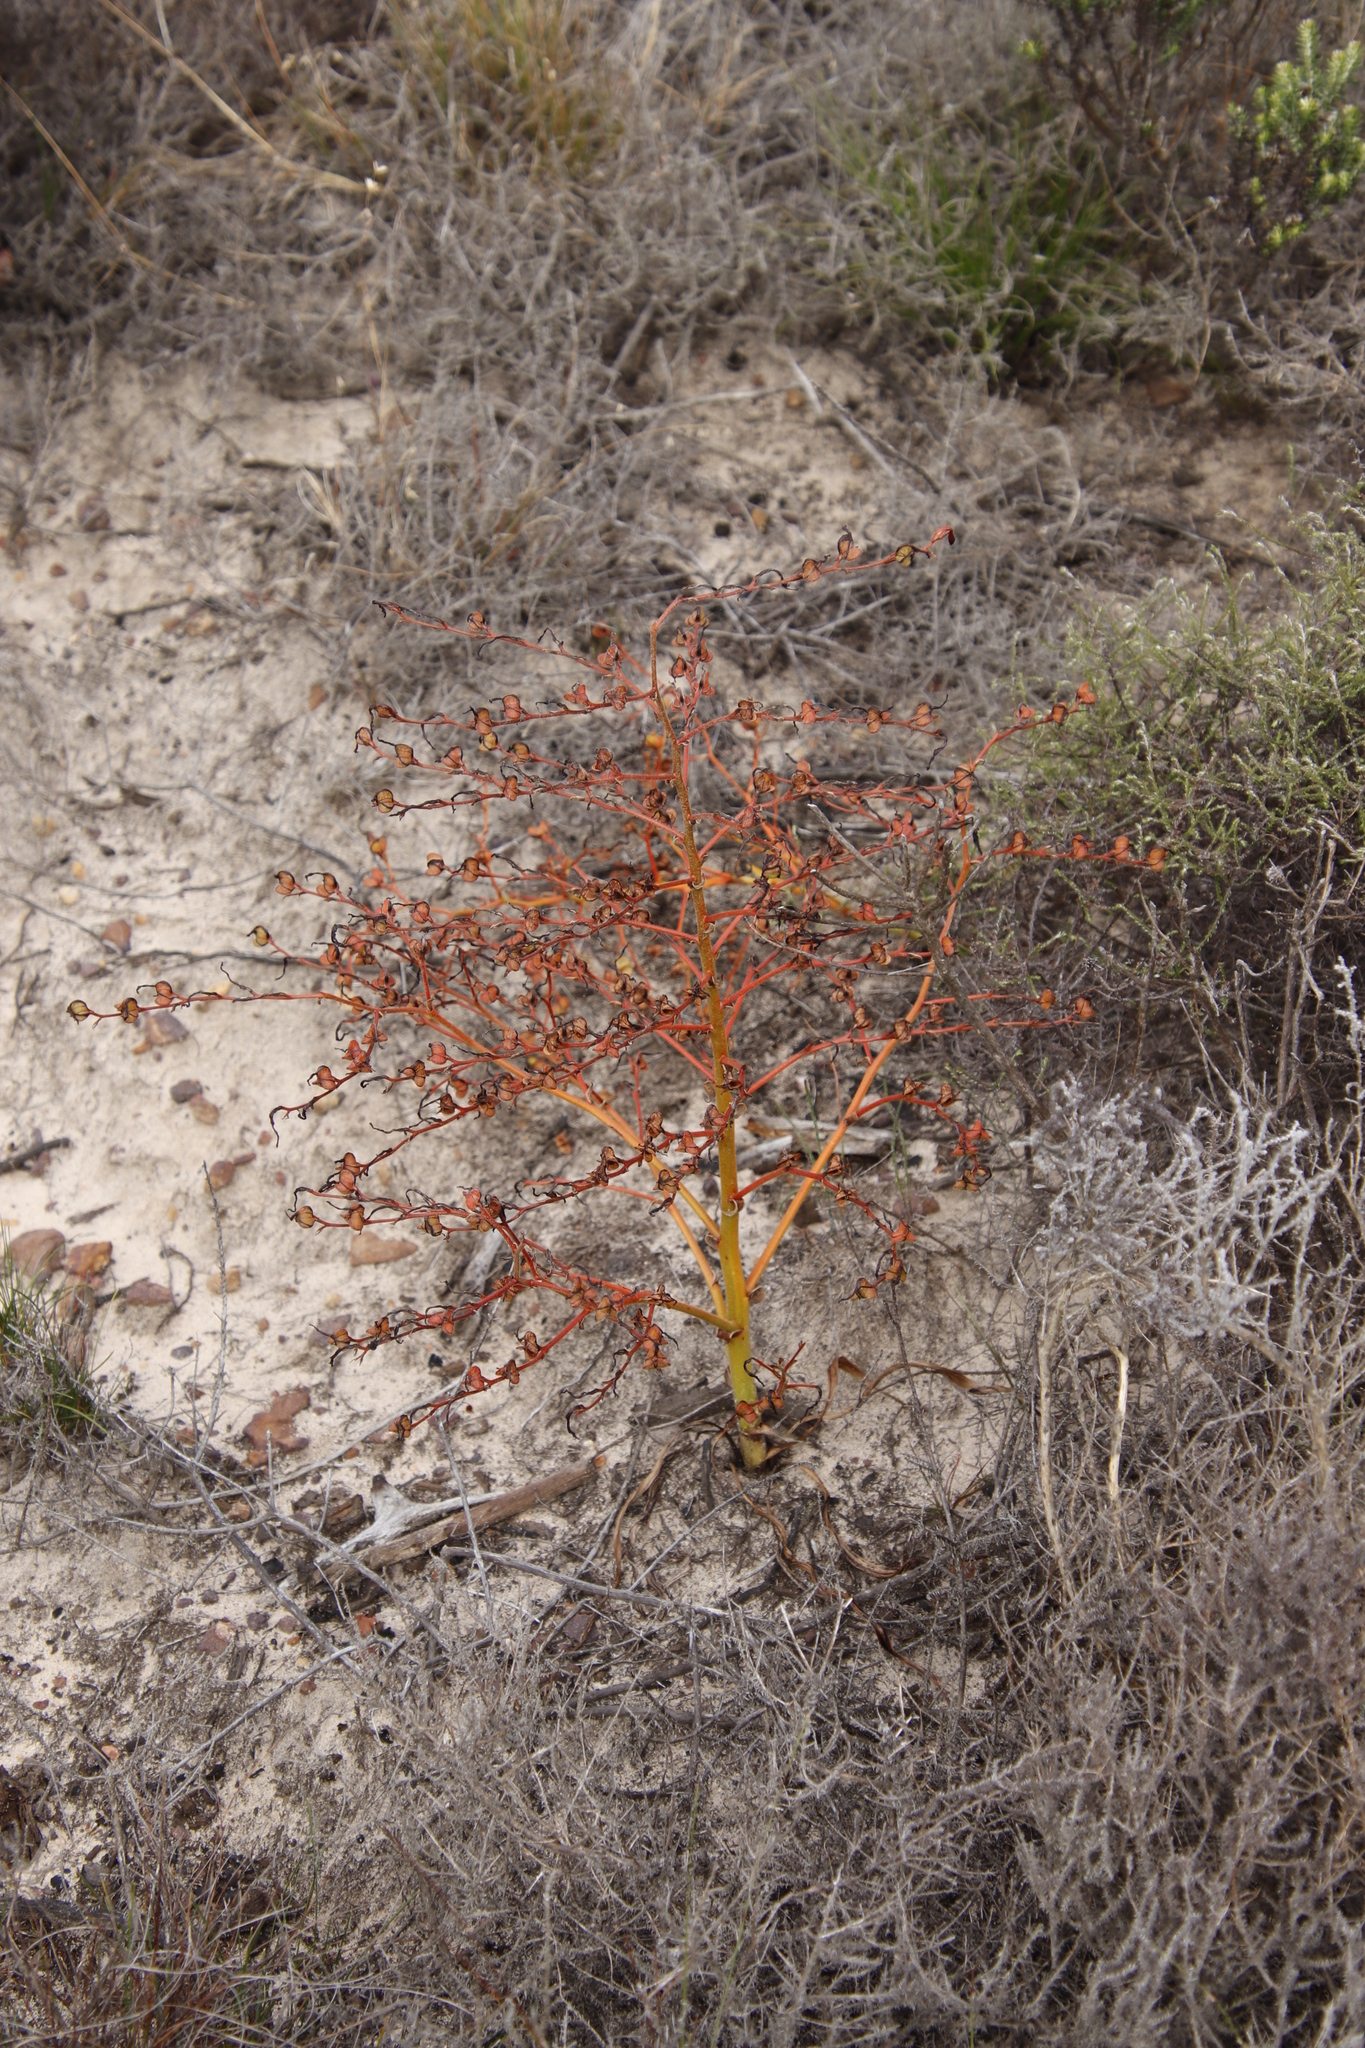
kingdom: Plantae
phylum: Tracheophyta
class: Liliopsida
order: Commelinales
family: Haemodoraceae
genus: Wachendorfia
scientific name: Wachendorfia paniculata
